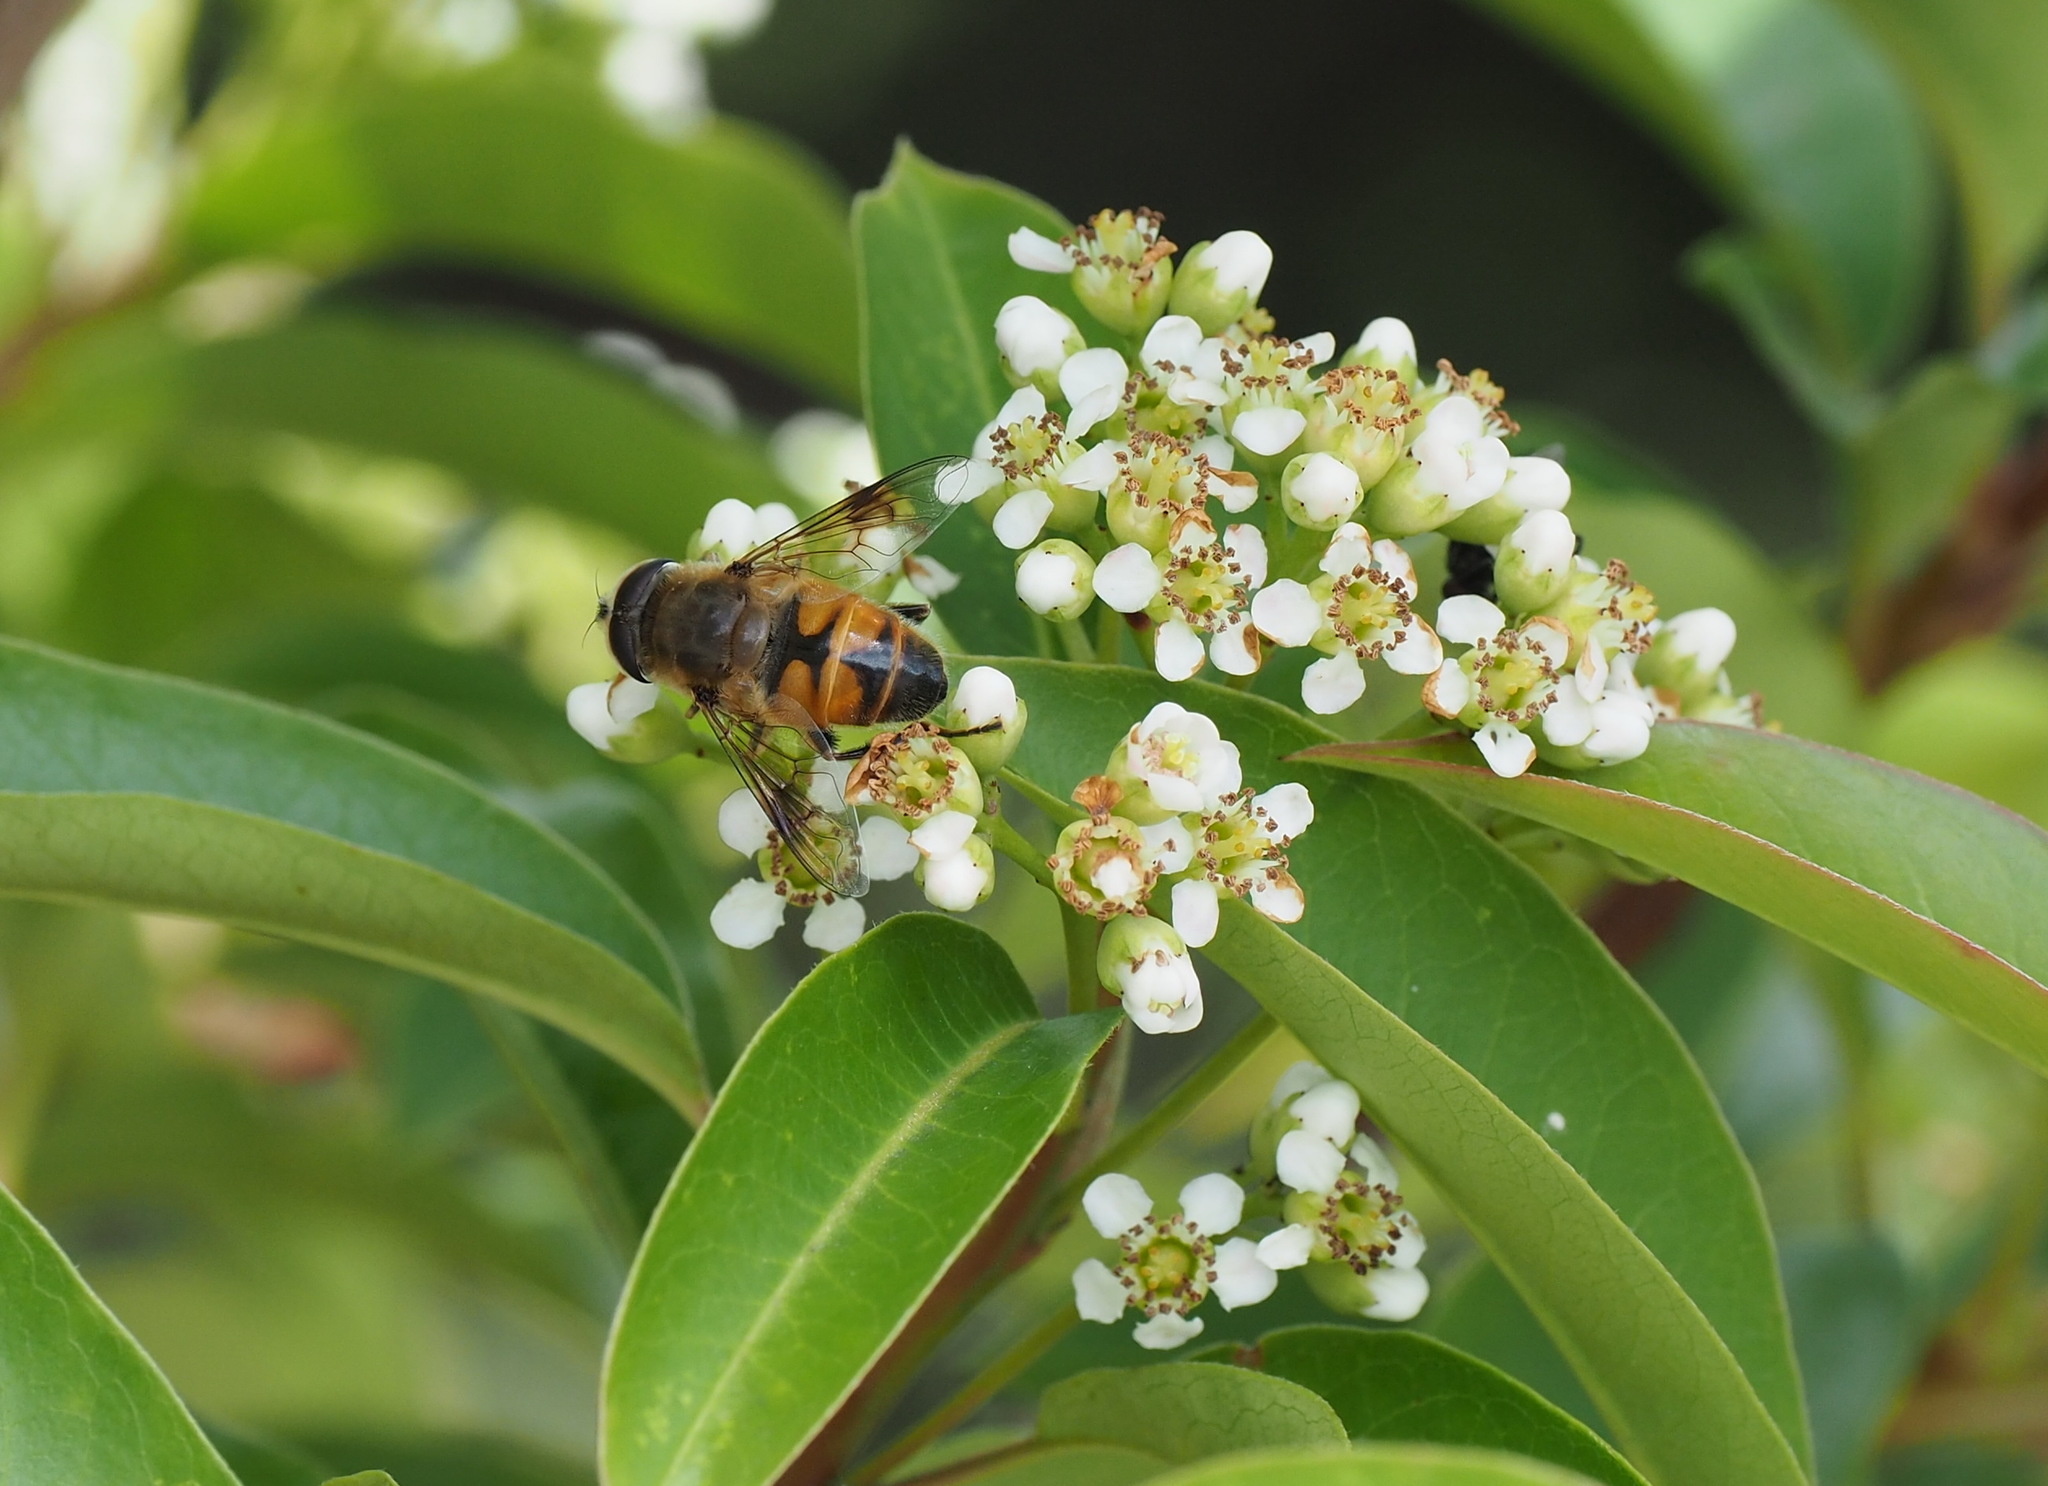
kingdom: Animalia
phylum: Arthropoda
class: Insecta
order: Diptera
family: Syrphidae
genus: Eristalis
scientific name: Eristalis tenax
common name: Drone fly
